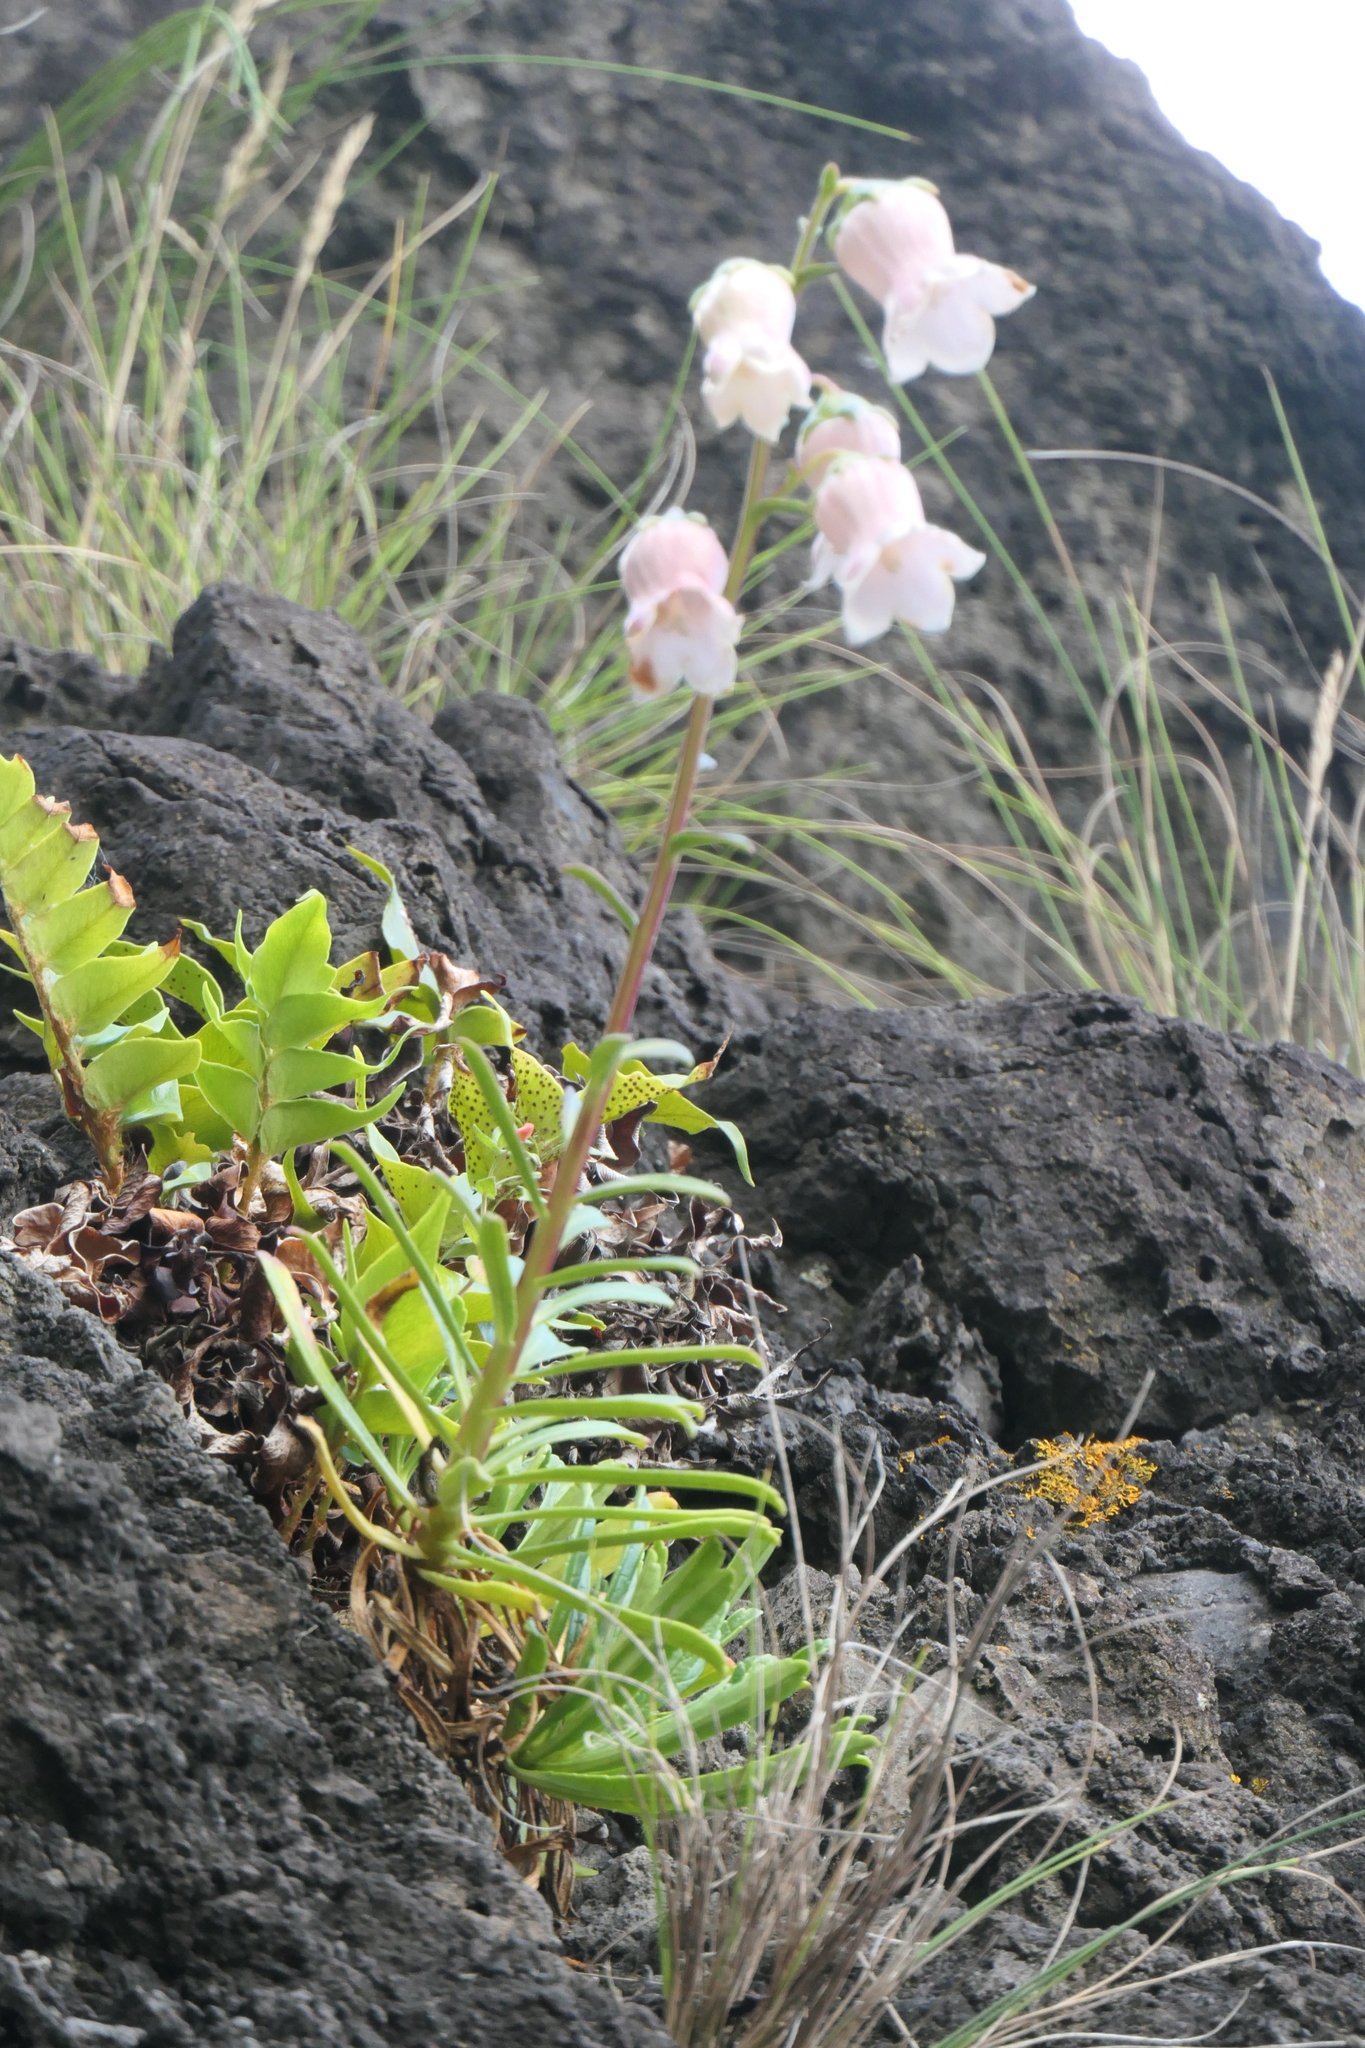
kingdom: Plantae
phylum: Tracheophyta
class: Magnoliopsida
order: Asterales
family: Campanulaceae
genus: Campanula
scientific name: Campanula vidalii
